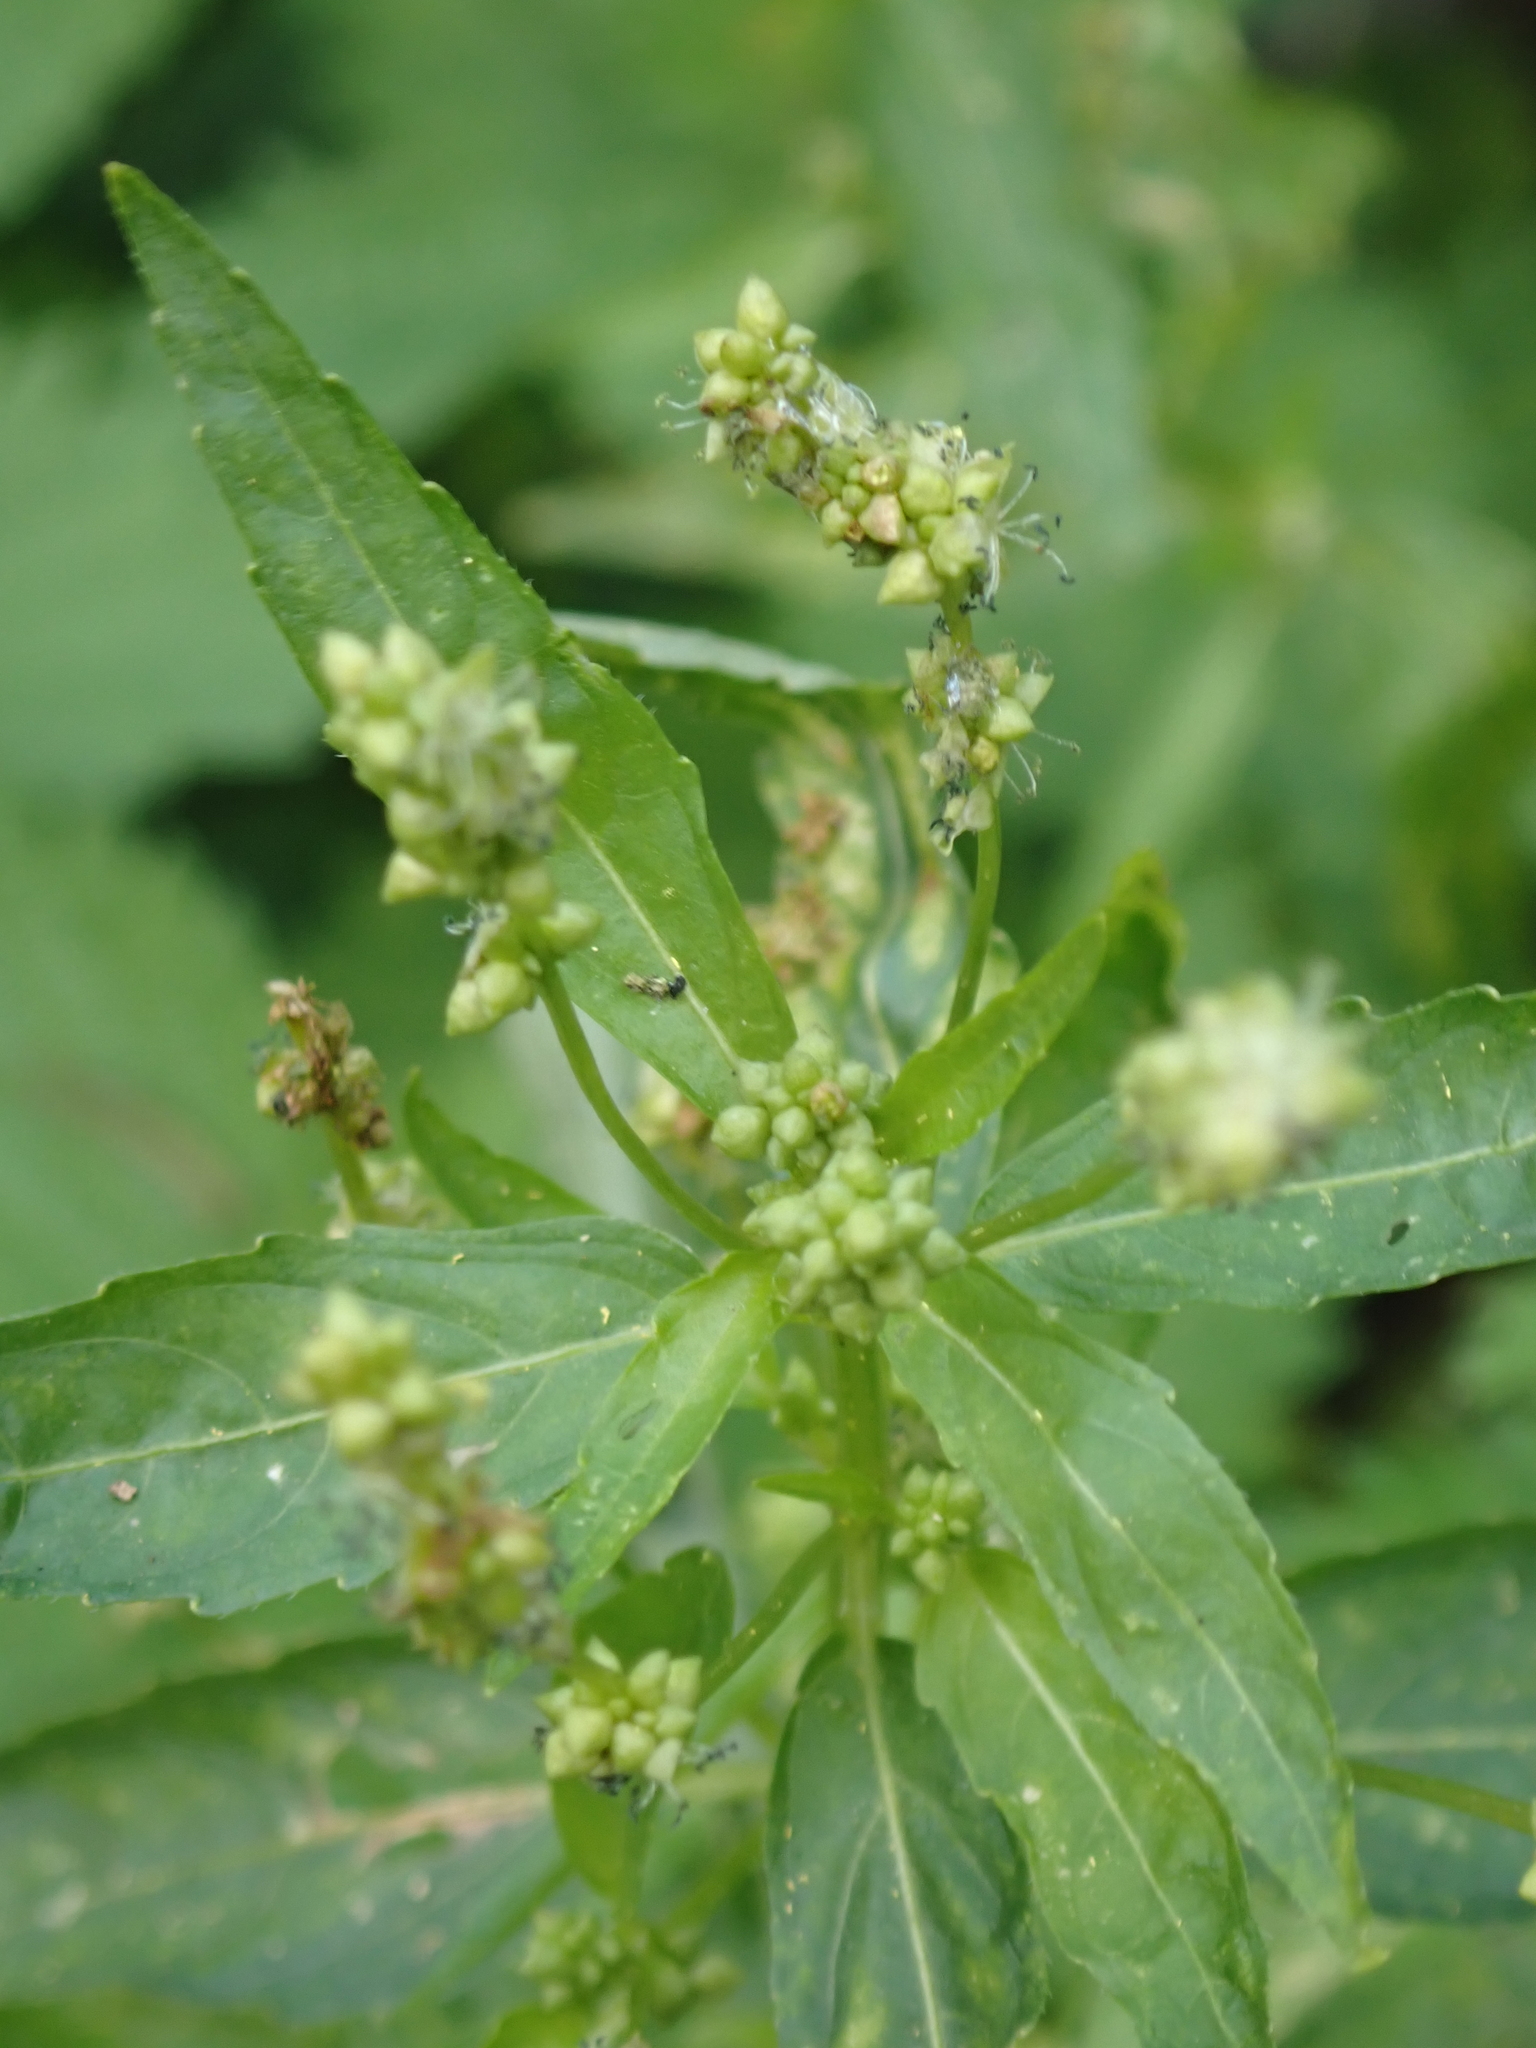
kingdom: Plantae
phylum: Tracheophyta
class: Magnoliopsida
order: Malpighiales
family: Euphorbiaceae
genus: Mercurialis
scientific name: Mercurialis annua
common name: Annual mercury
